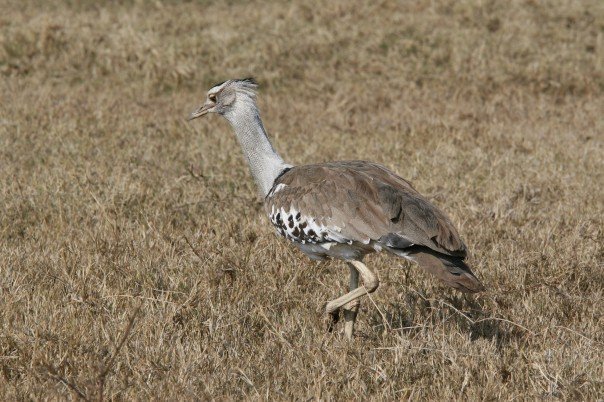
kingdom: Animalia
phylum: Chordata
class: Aves
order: Otidiformes
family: Otididae
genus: Ardeotis
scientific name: Ardeotis kori
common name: Kori bustard
